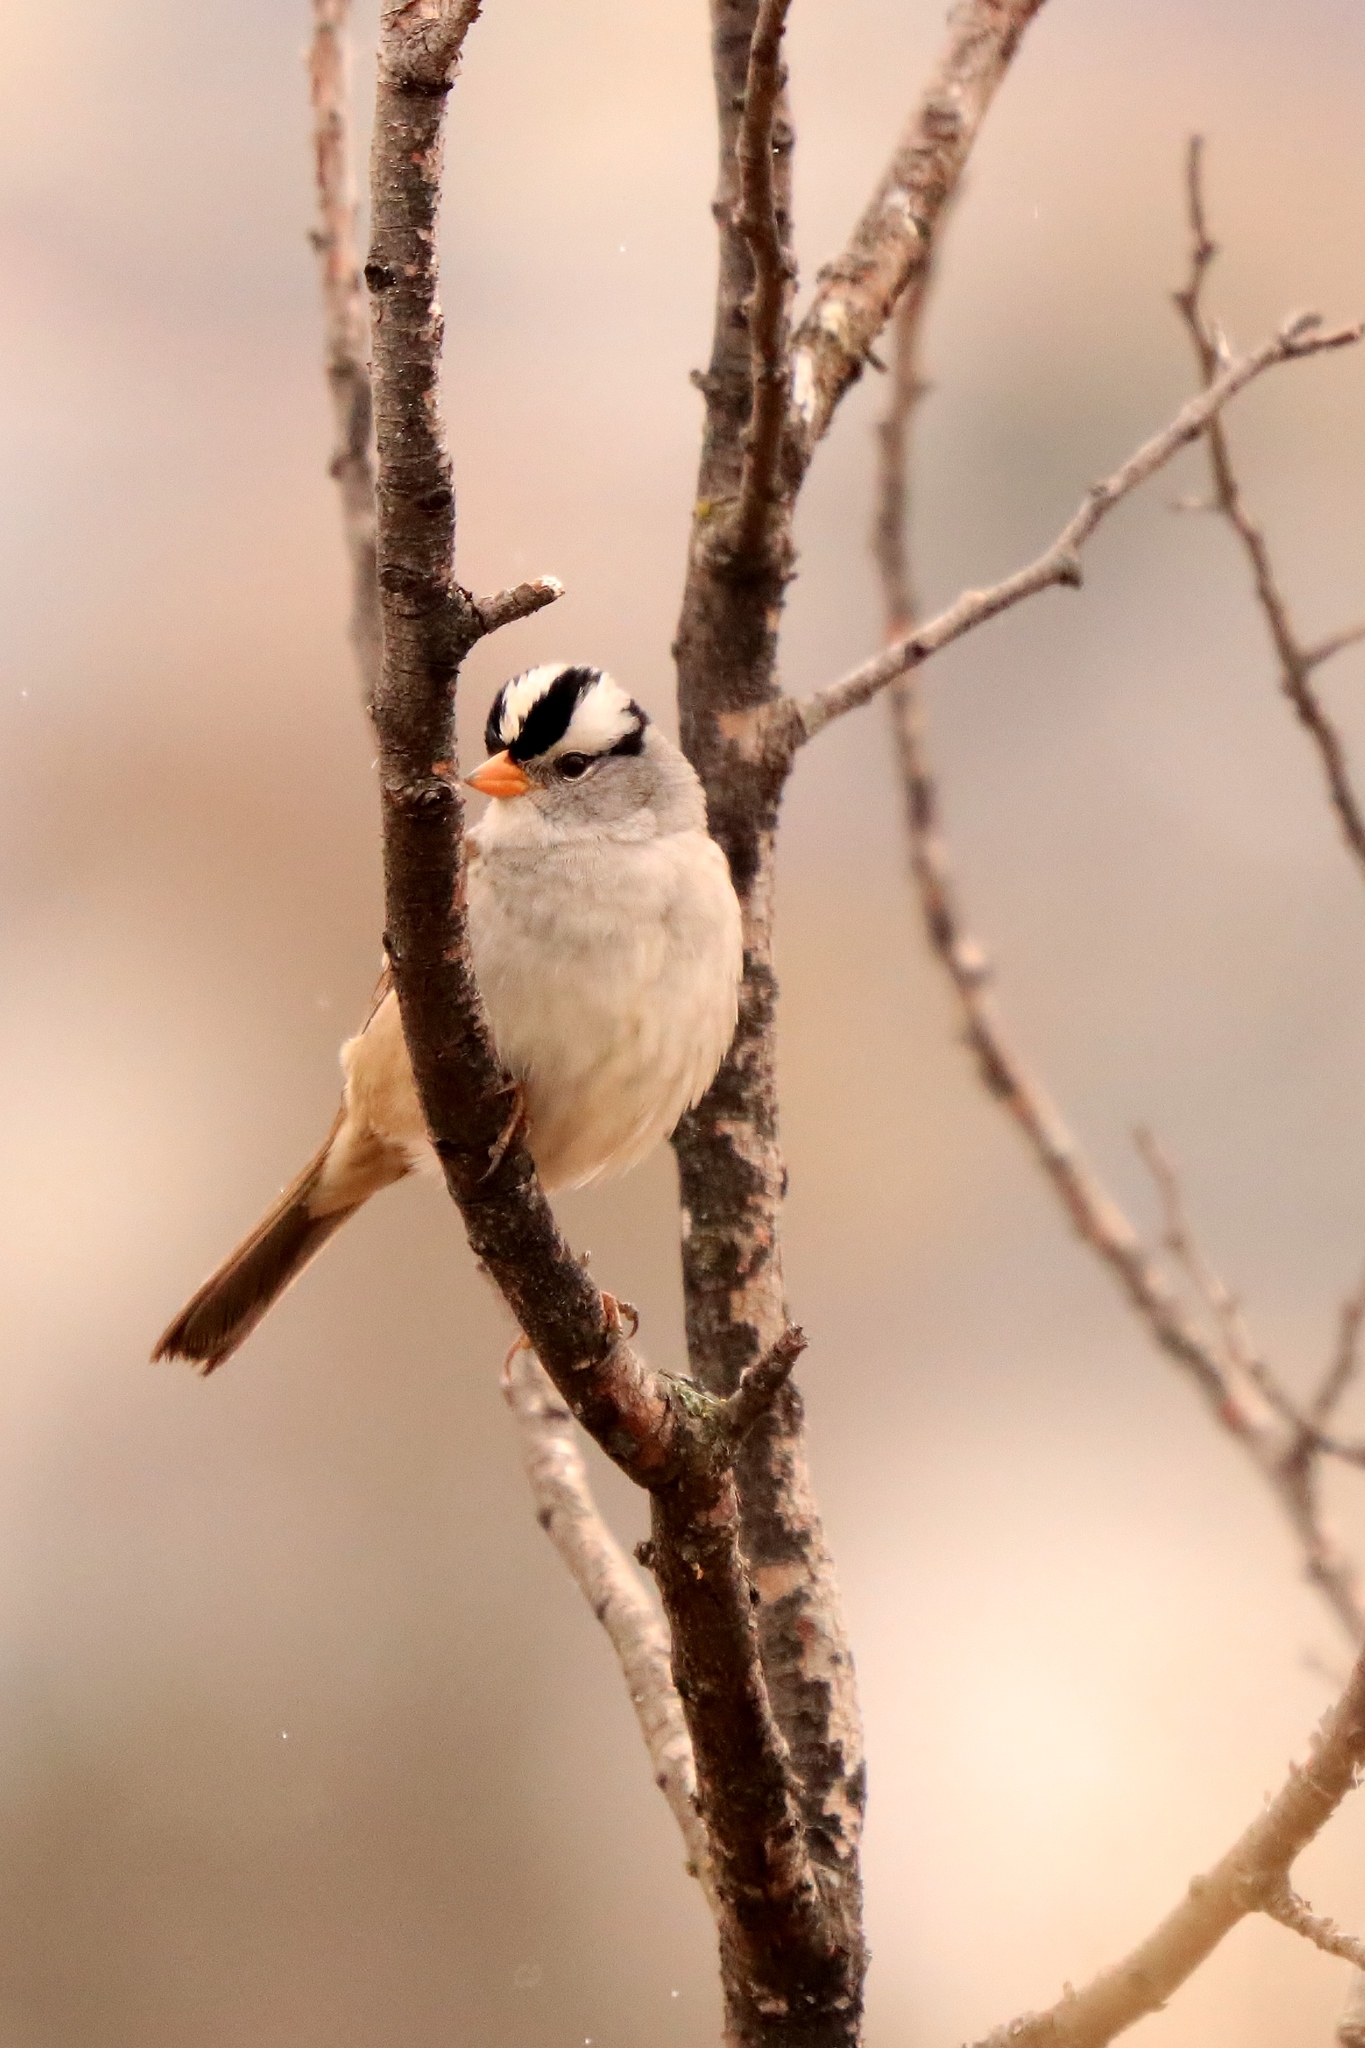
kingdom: Animalia
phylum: Chordata
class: Aves
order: Passeriformes
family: Passerellidae
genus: Zonotrichia
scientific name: Zonotrichia leucophrys
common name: White-crowned sparrow
